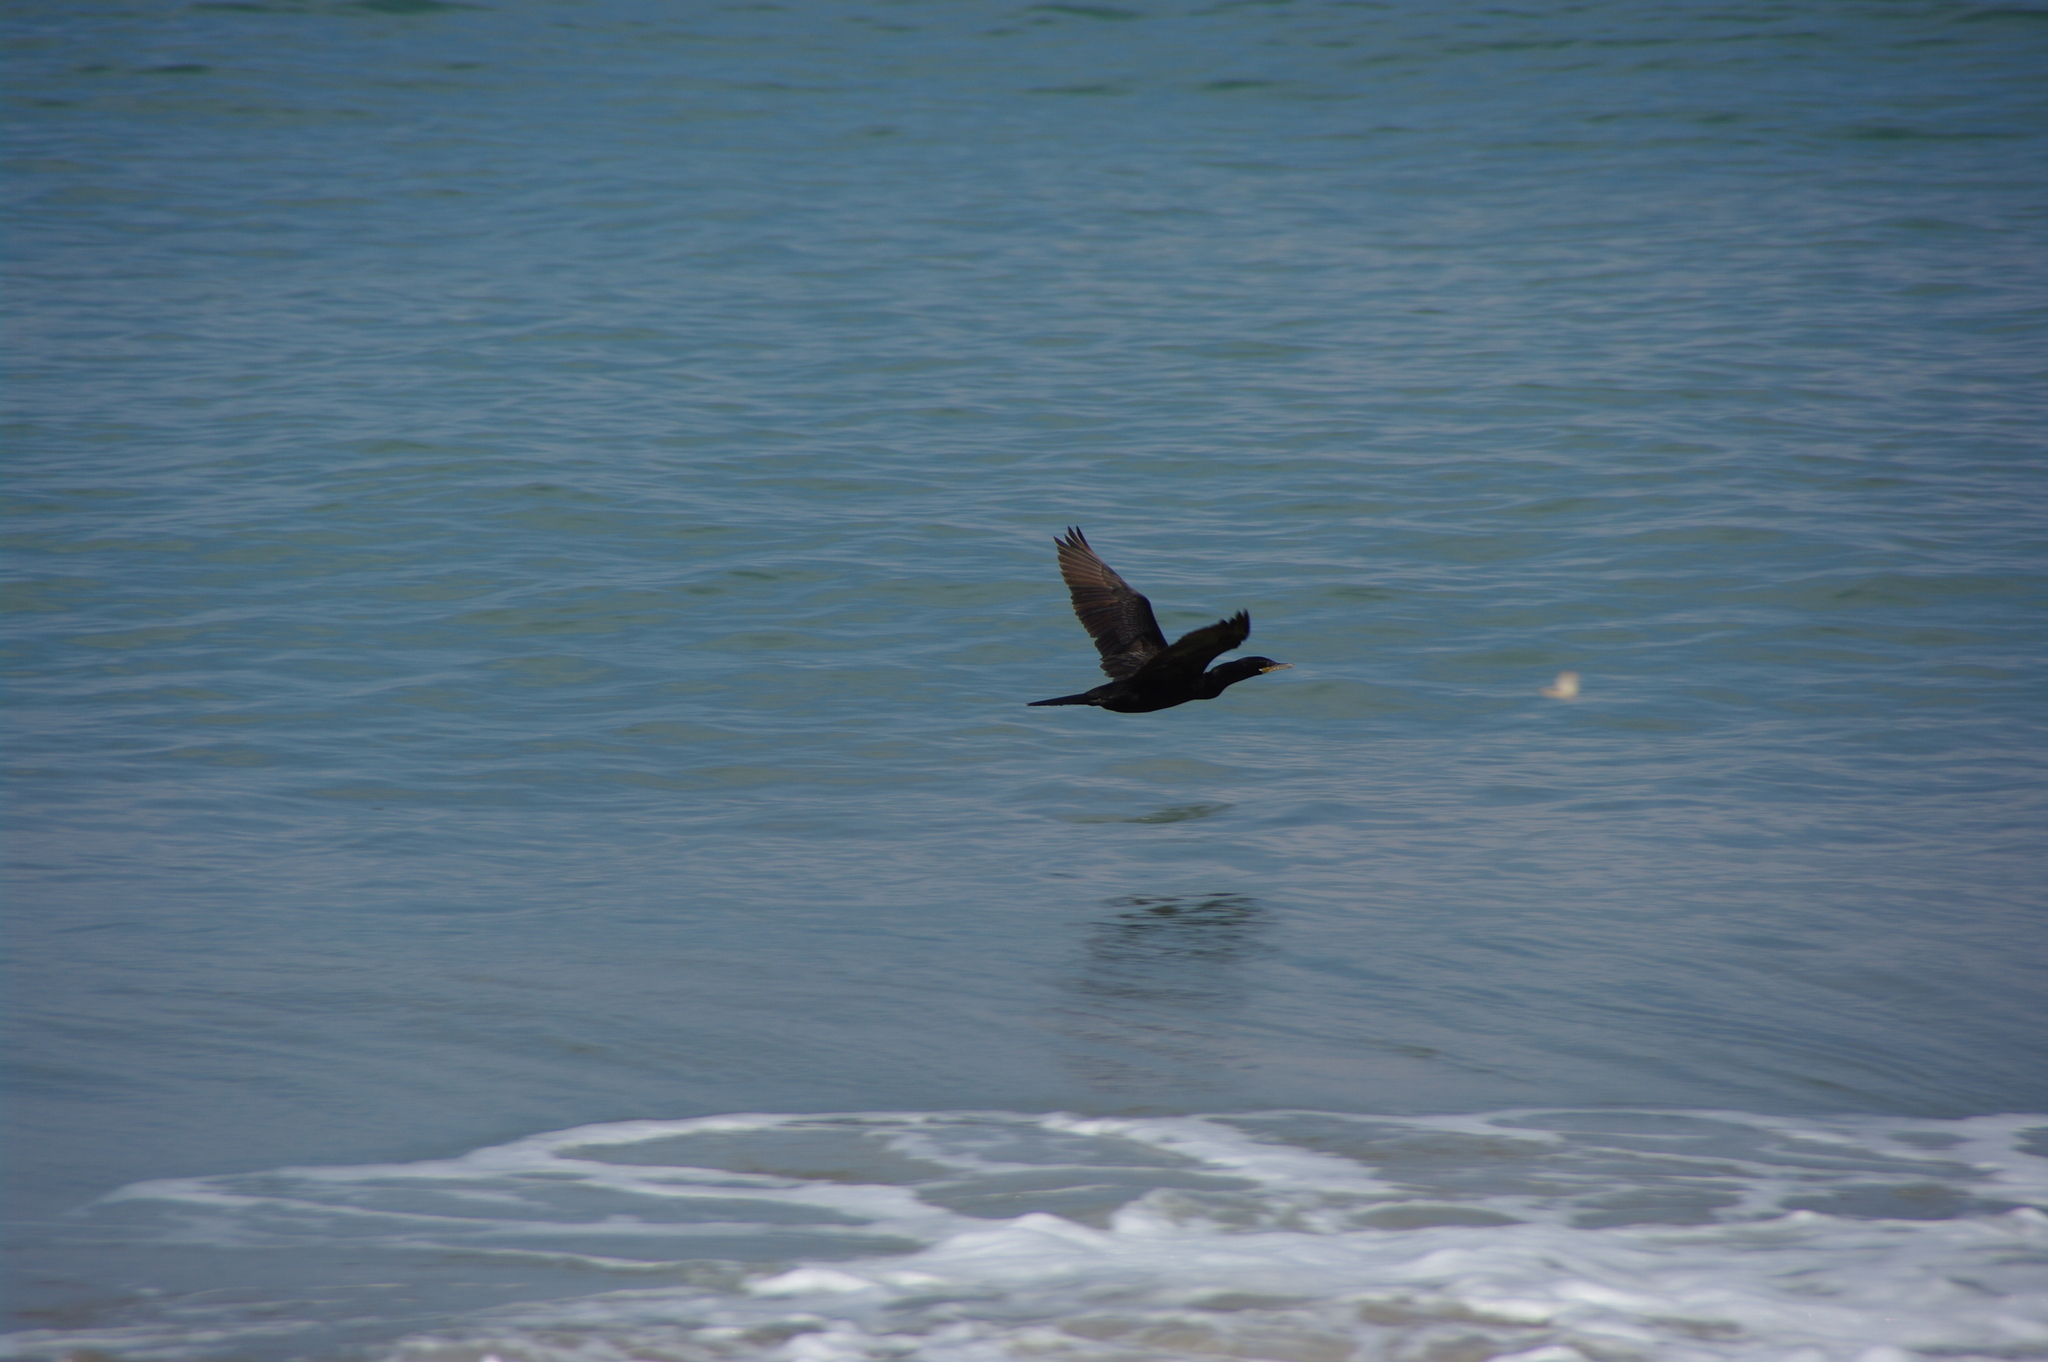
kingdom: Animalia
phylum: Chordata
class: Aves
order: Suliformes
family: Phalacrocoracidae
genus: Phalacrocorax
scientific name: Phalacrocorax brasilianus
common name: Neotropic cormorant
